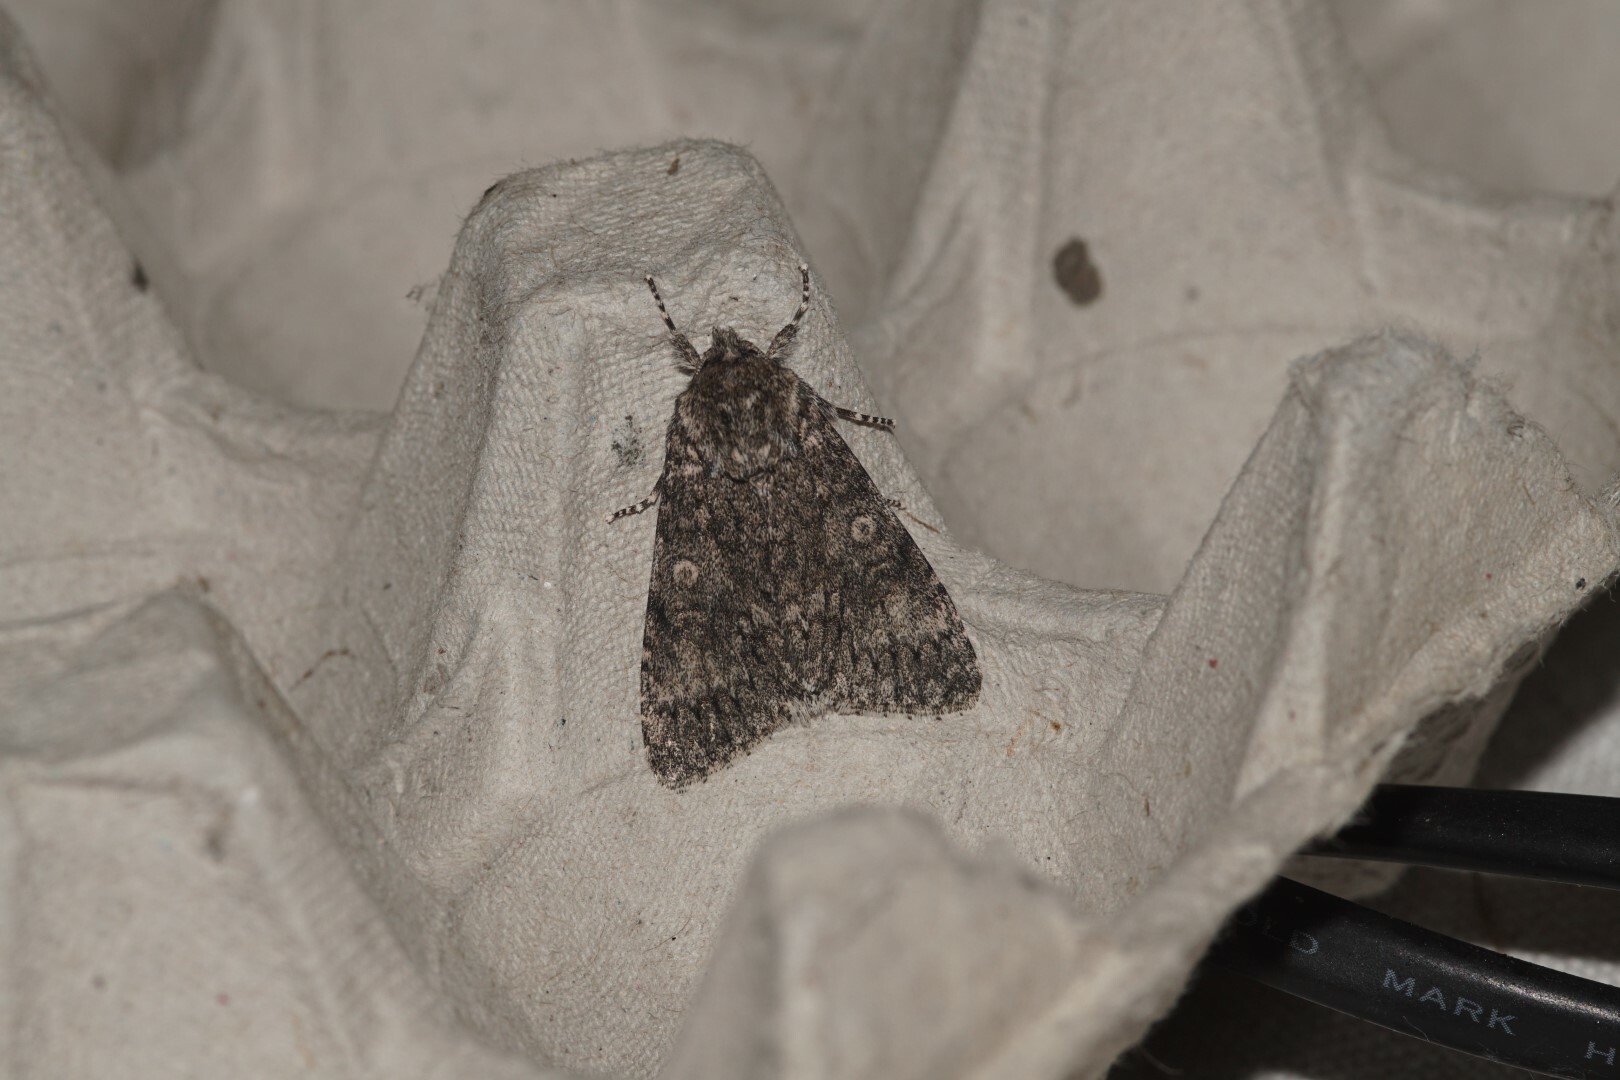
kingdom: Animalia
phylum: Arthropoda
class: Insecta
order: Lepidoptera
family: Noctuidae
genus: Acronicta
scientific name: Acronicta megacephala
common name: Poplar grey
